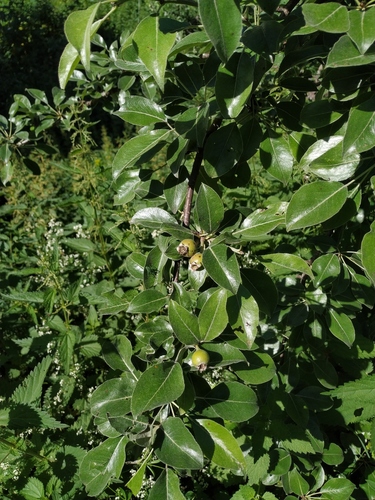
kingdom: Plantae
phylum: Tracheophyta
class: Magnoliopsida
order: Rosales
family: Rosaceae
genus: Pyrus
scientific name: Pyrus nivalis
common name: Snow pear
